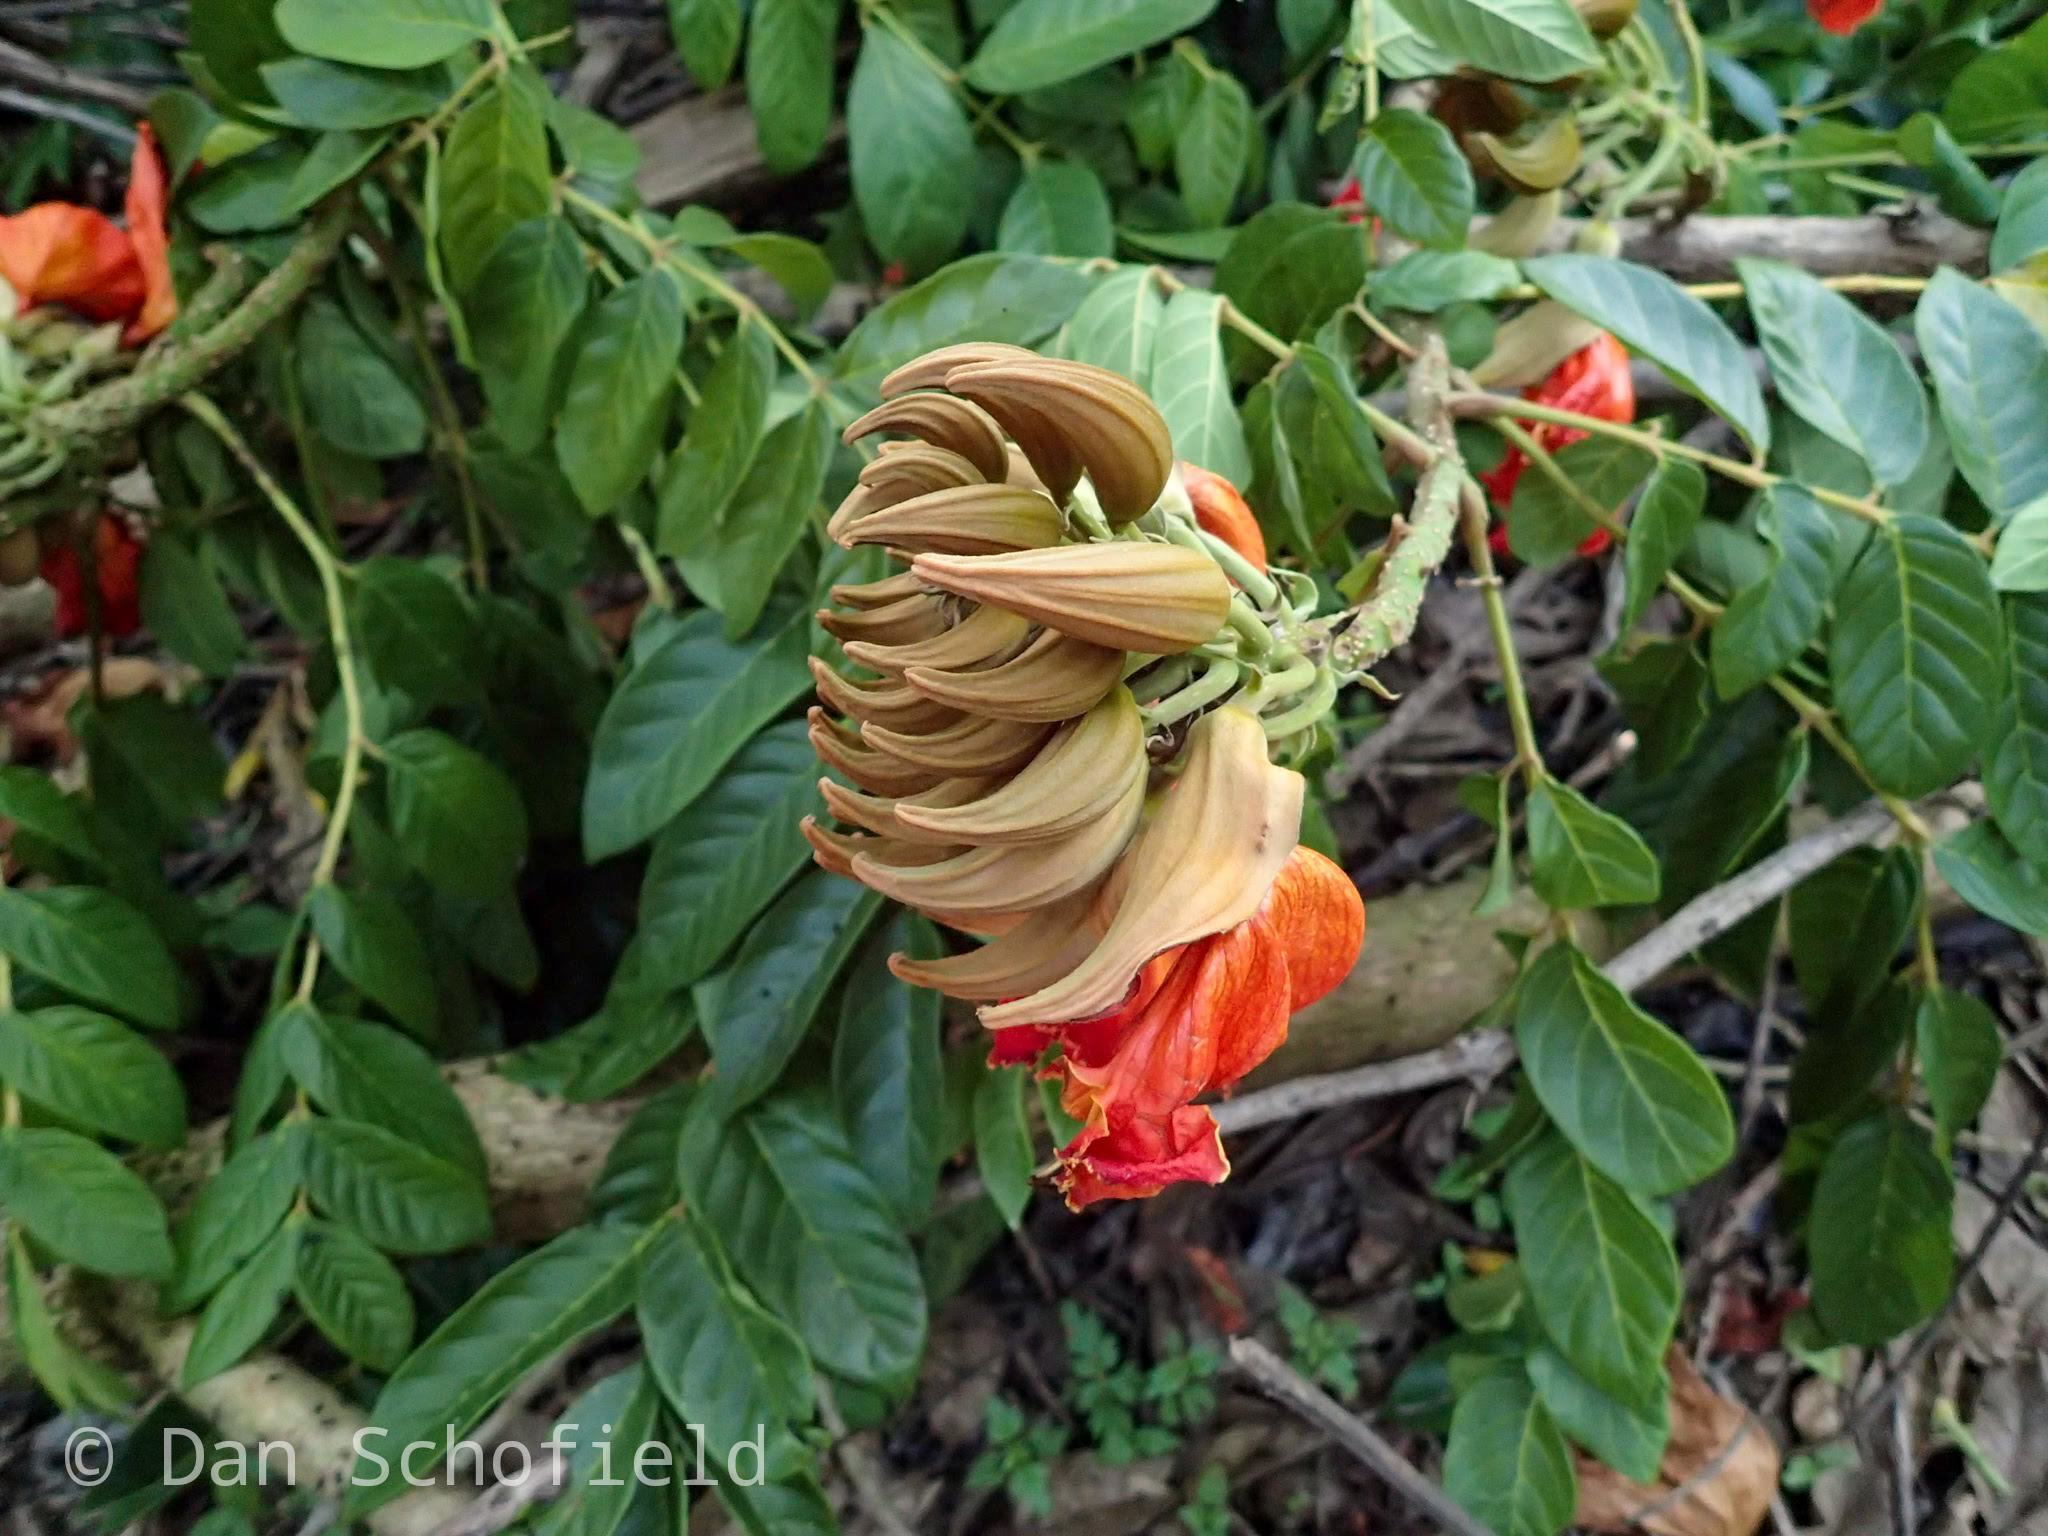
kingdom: Plantae
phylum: Tracheophyta
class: Magnoliopsida
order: Lamiales
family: Bignoniaceae
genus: Spathodea
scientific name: Spathodea campanulata
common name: African tuliptree
